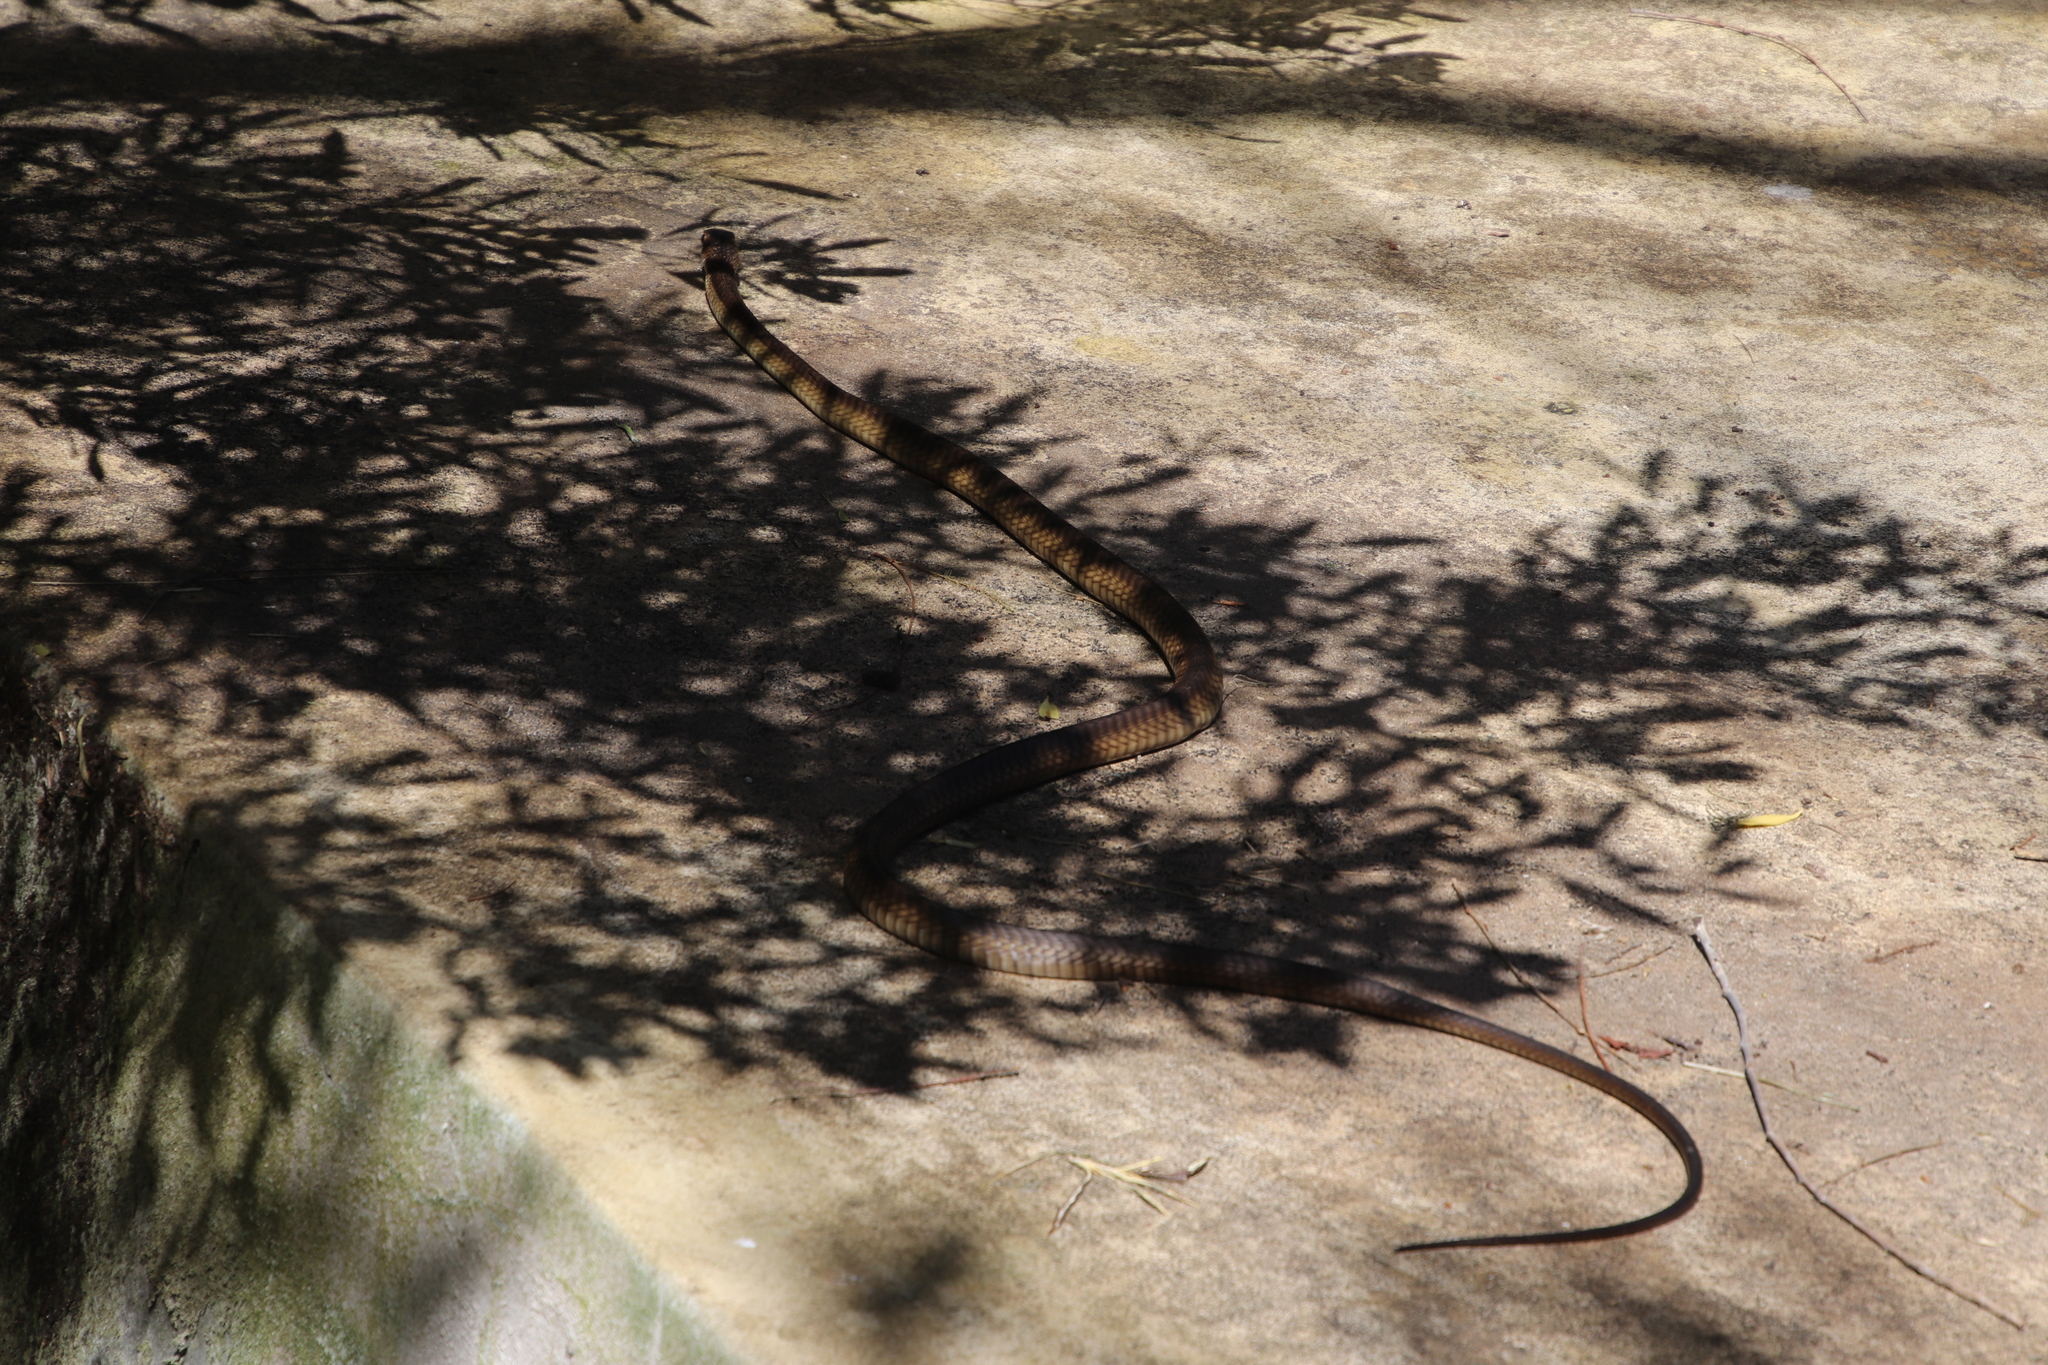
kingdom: Animalia
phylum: Chordata
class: Squamata
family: Colubridae
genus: Dispholidus
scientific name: Dispholidus typus
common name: Boomslang
